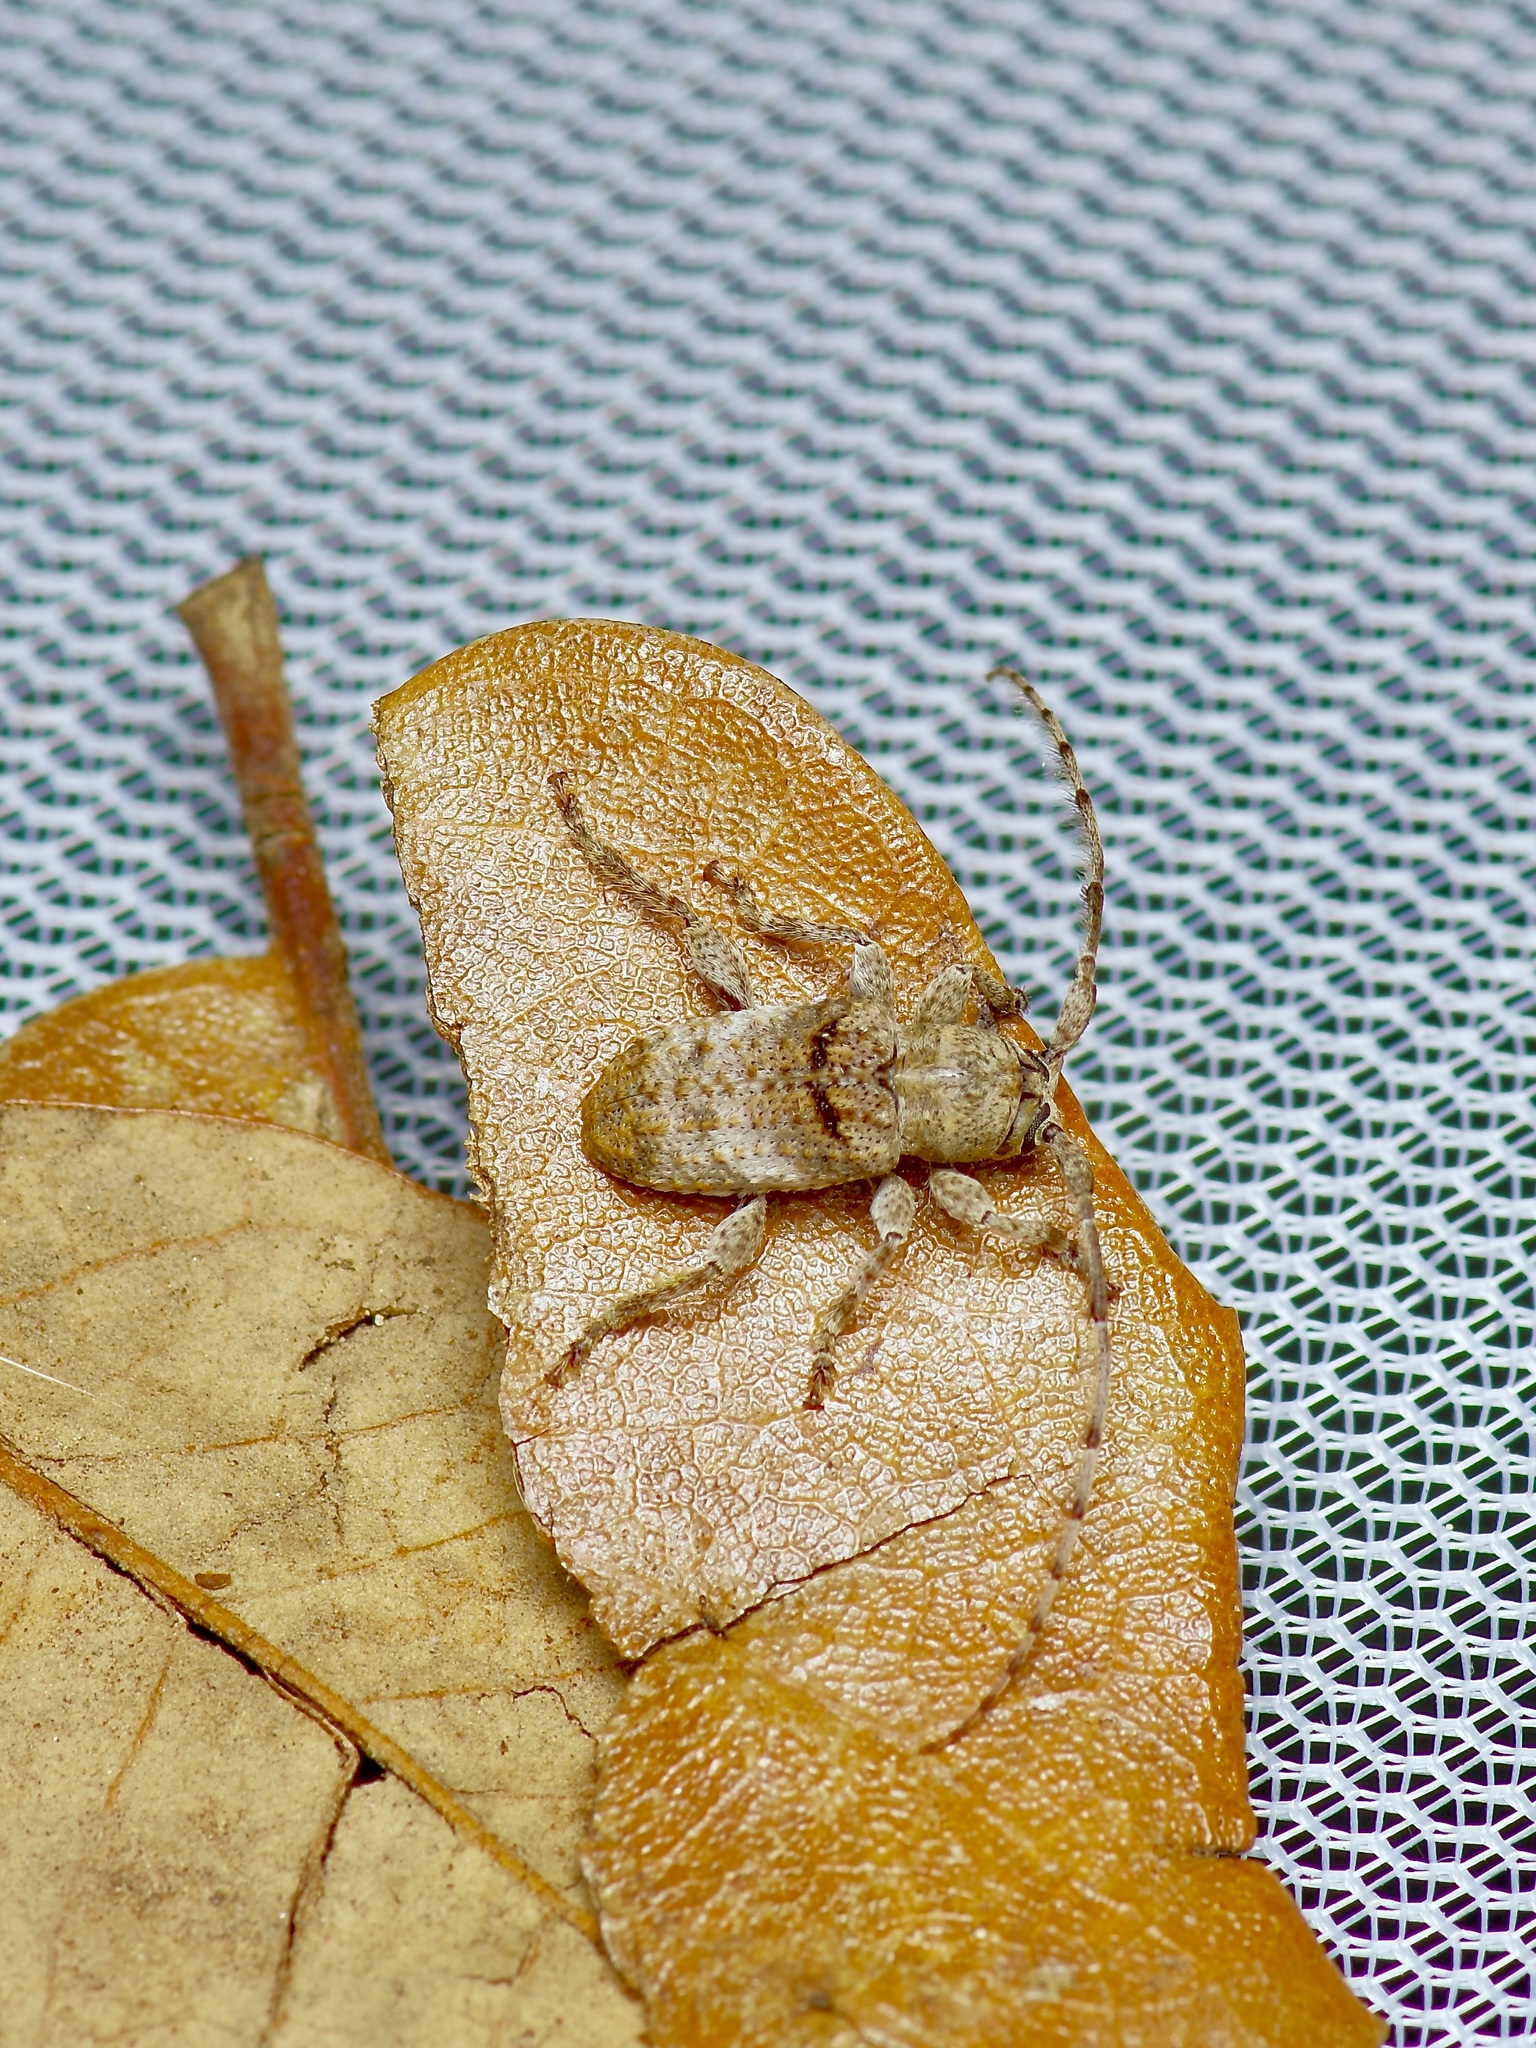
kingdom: Animalia
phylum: Arthropoda
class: Insecta
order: Coleoptera
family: Cerambycidae
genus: Ecyrus
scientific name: Ecyrus dasycerus
